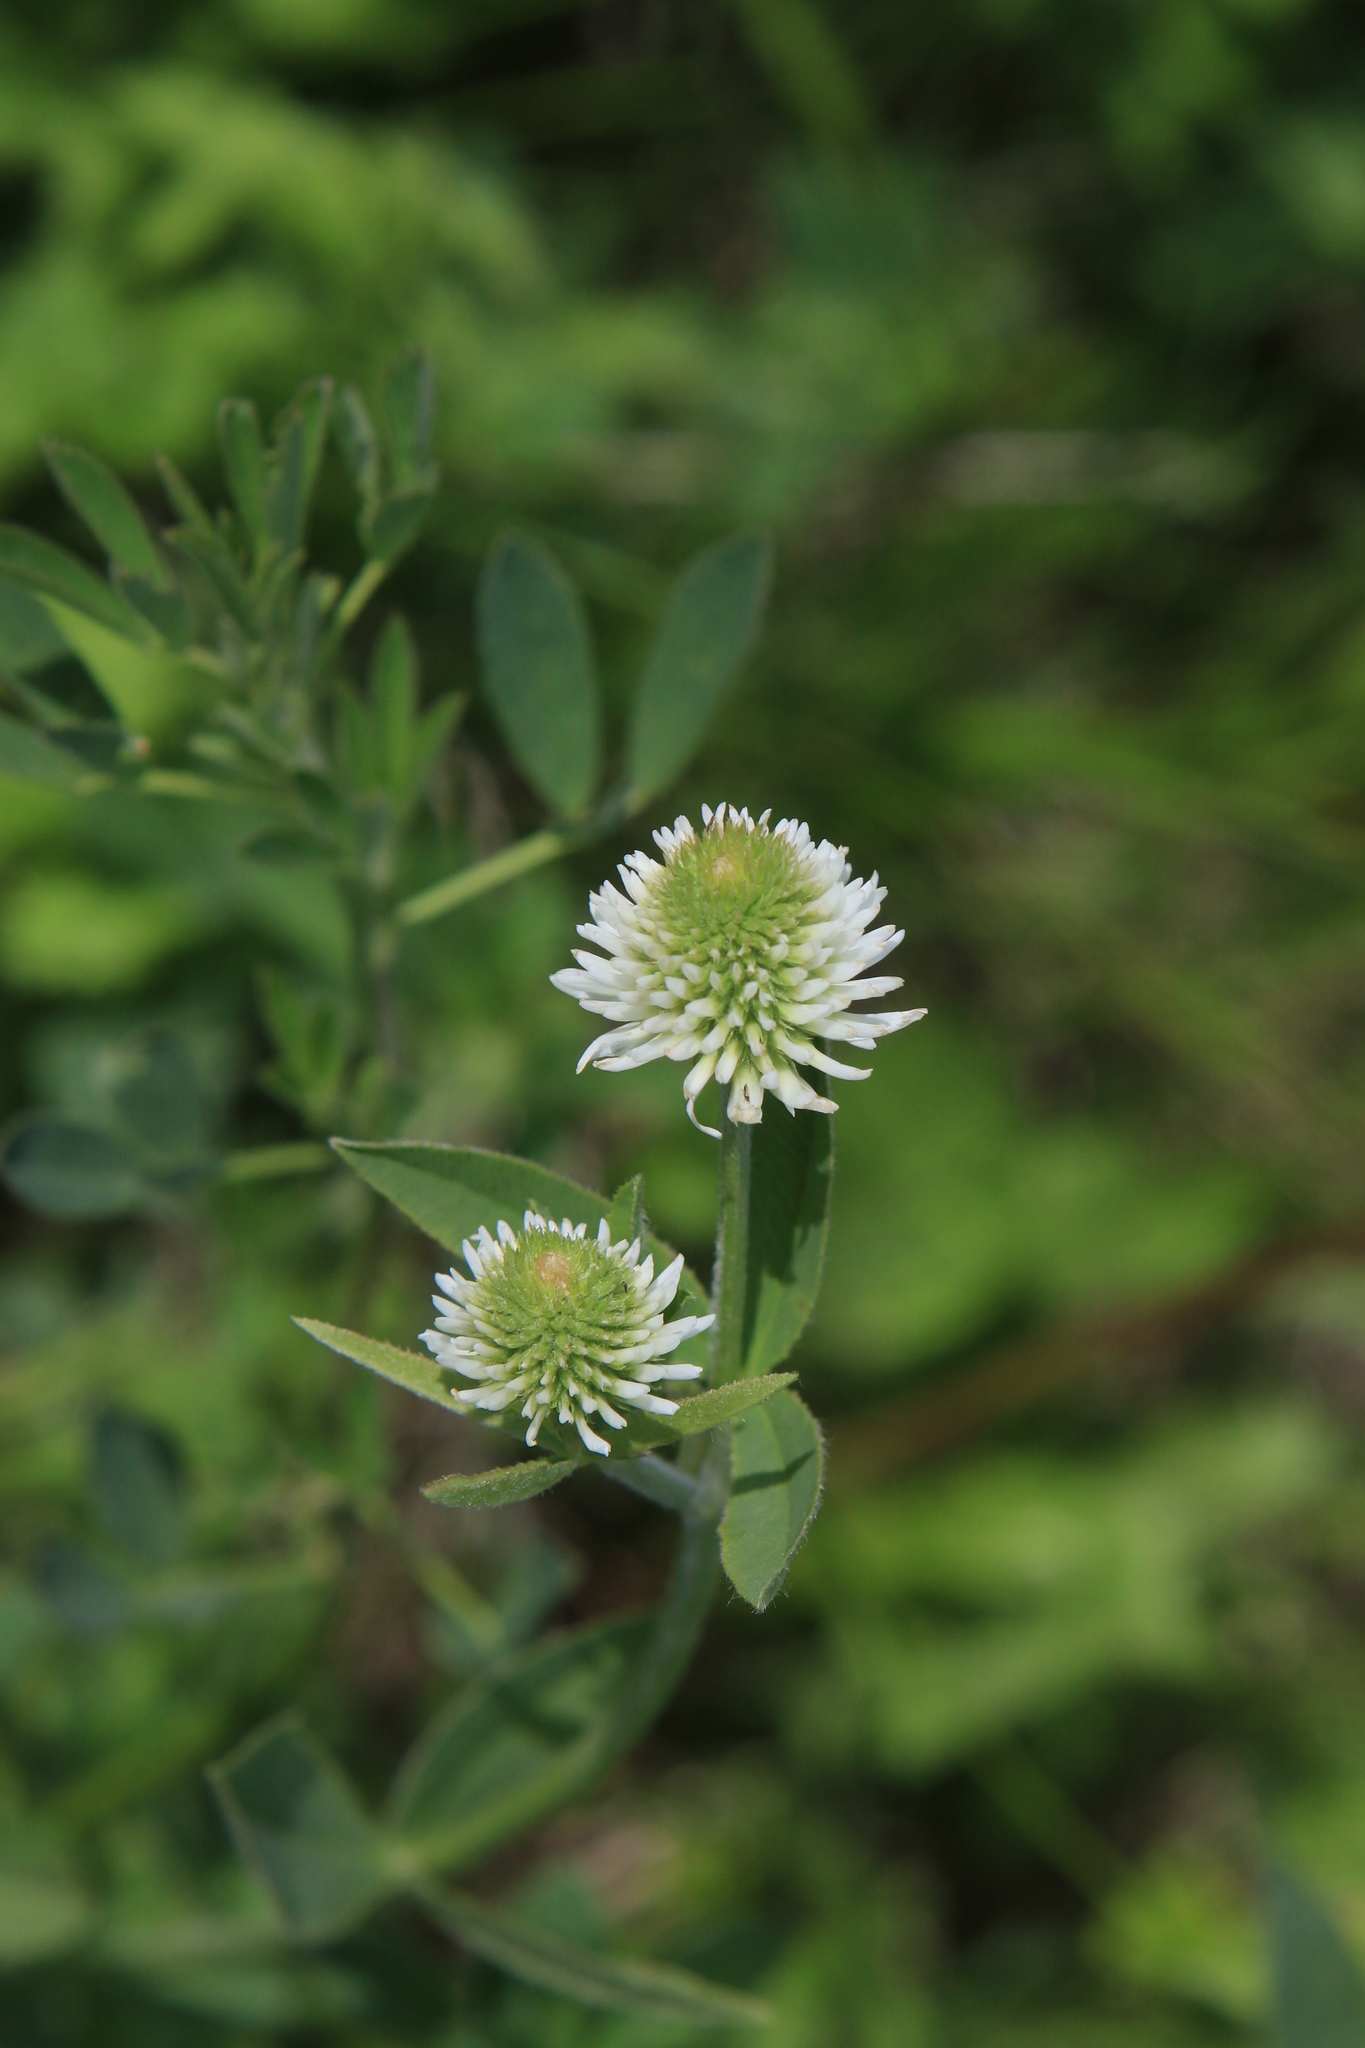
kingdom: Plantae
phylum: Tracheophyta
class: Magnoliopsida
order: Fabales
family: Fabaceae
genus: Trifolium
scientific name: Trifolium montanum
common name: Mountain clover
